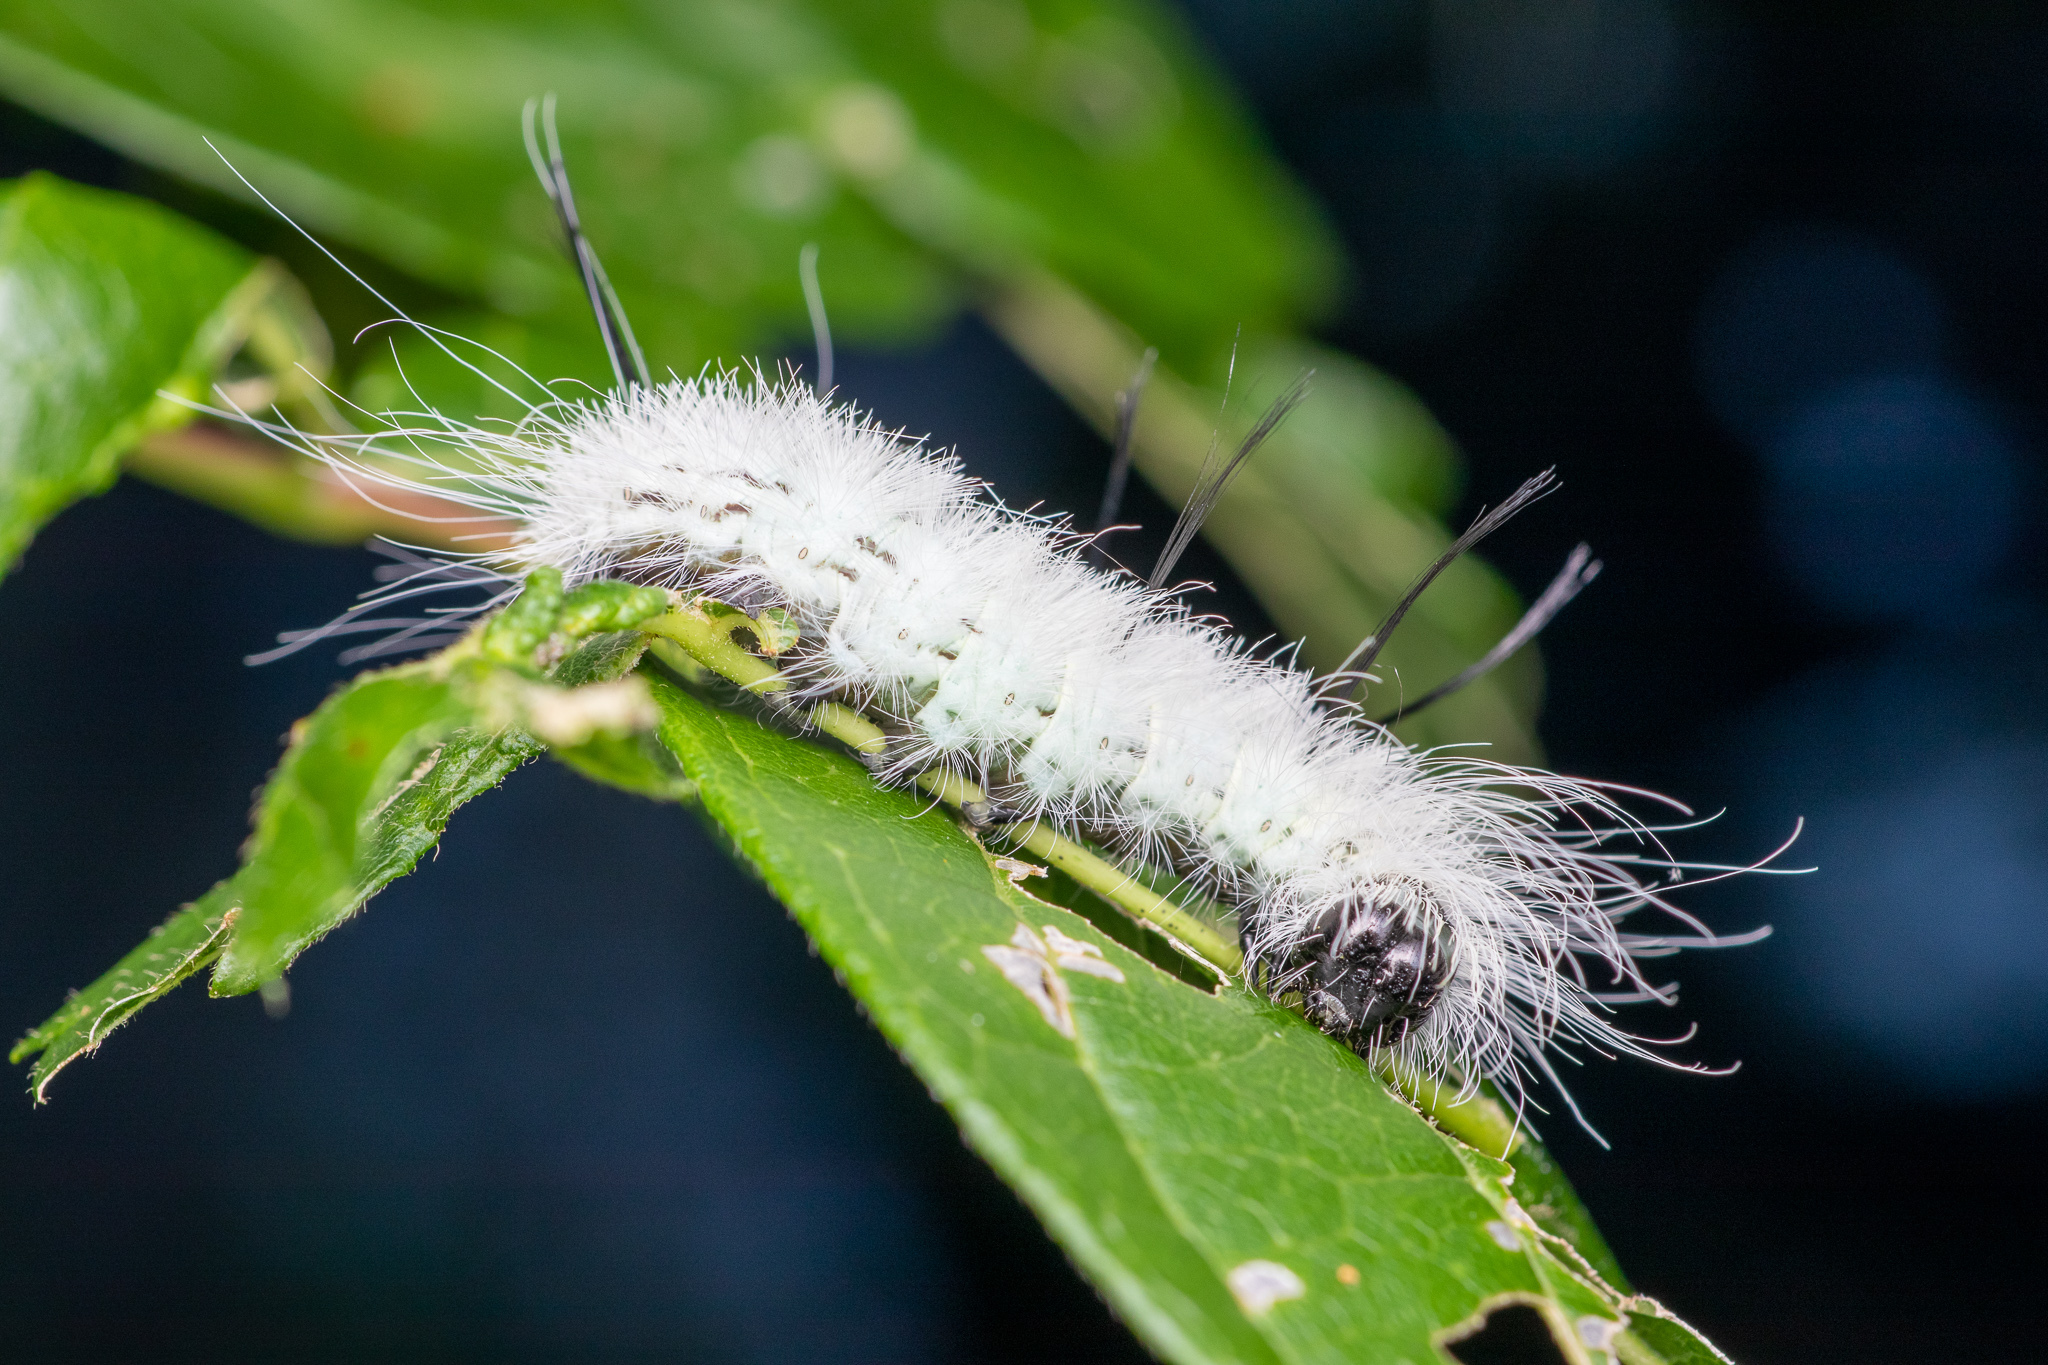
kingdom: Animalia
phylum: Arthropoda
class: Insecta
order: Lepidoptera
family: Noctuidae
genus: Acronicta
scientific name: Acronicta americana
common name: American dagger
